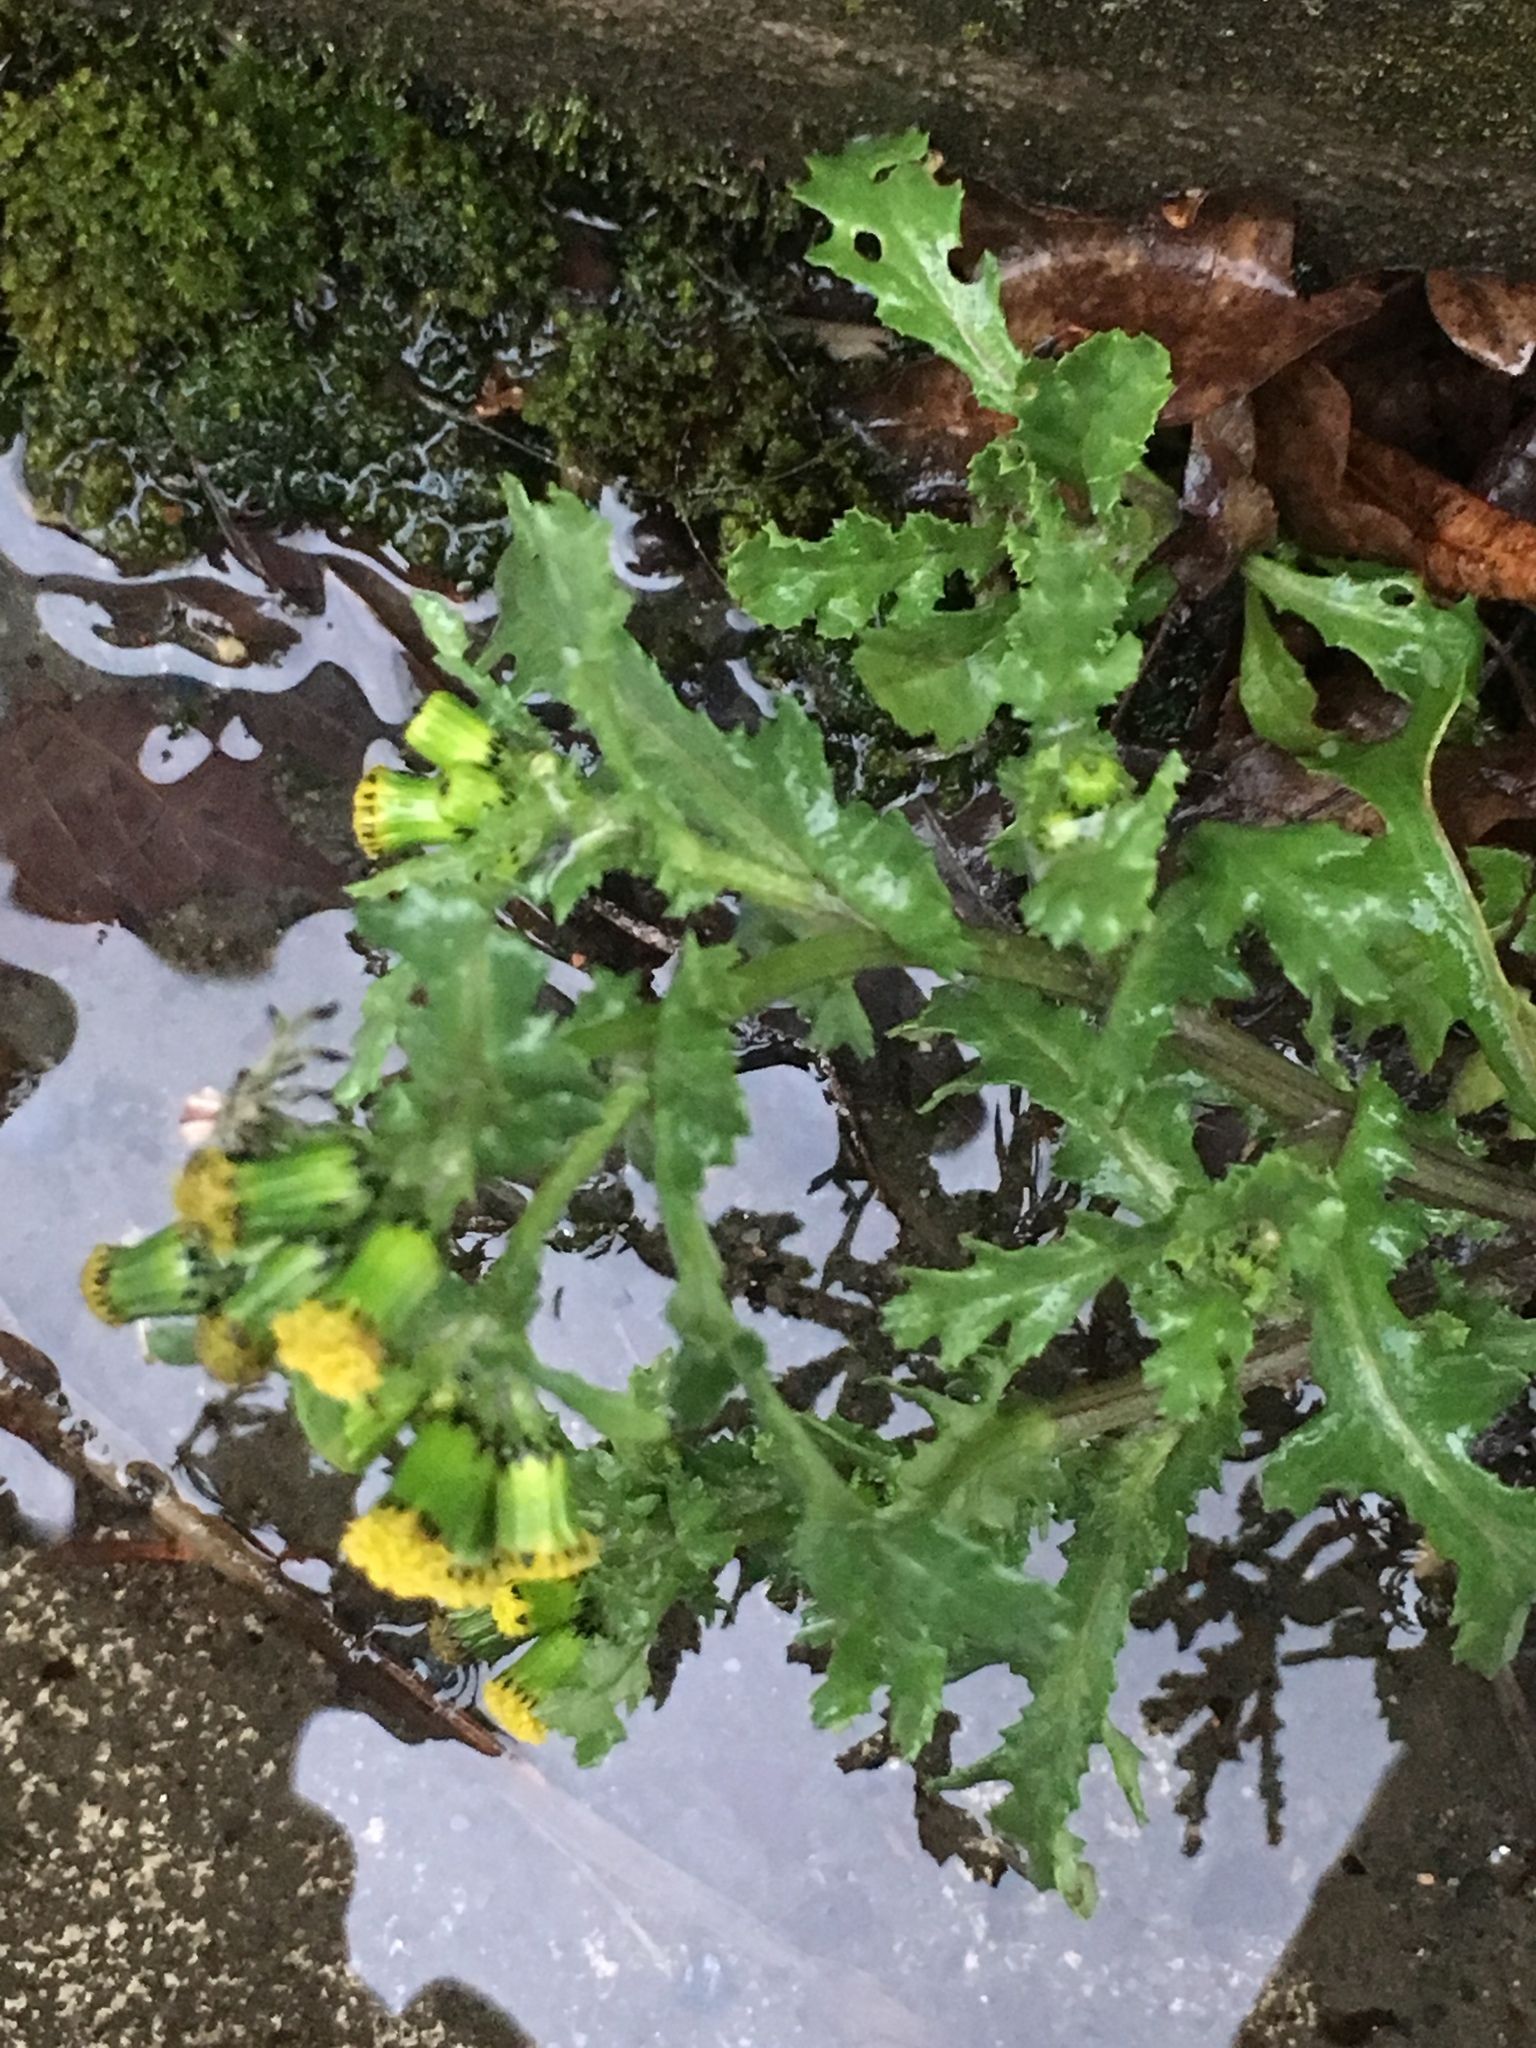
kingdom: Plantae
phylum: Tracheophyta
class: Magnoliopsida
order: Asterales
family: Asteraceae
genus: Senecio
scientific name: Senecio vulgaris
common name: Old-man-in-the-spring
